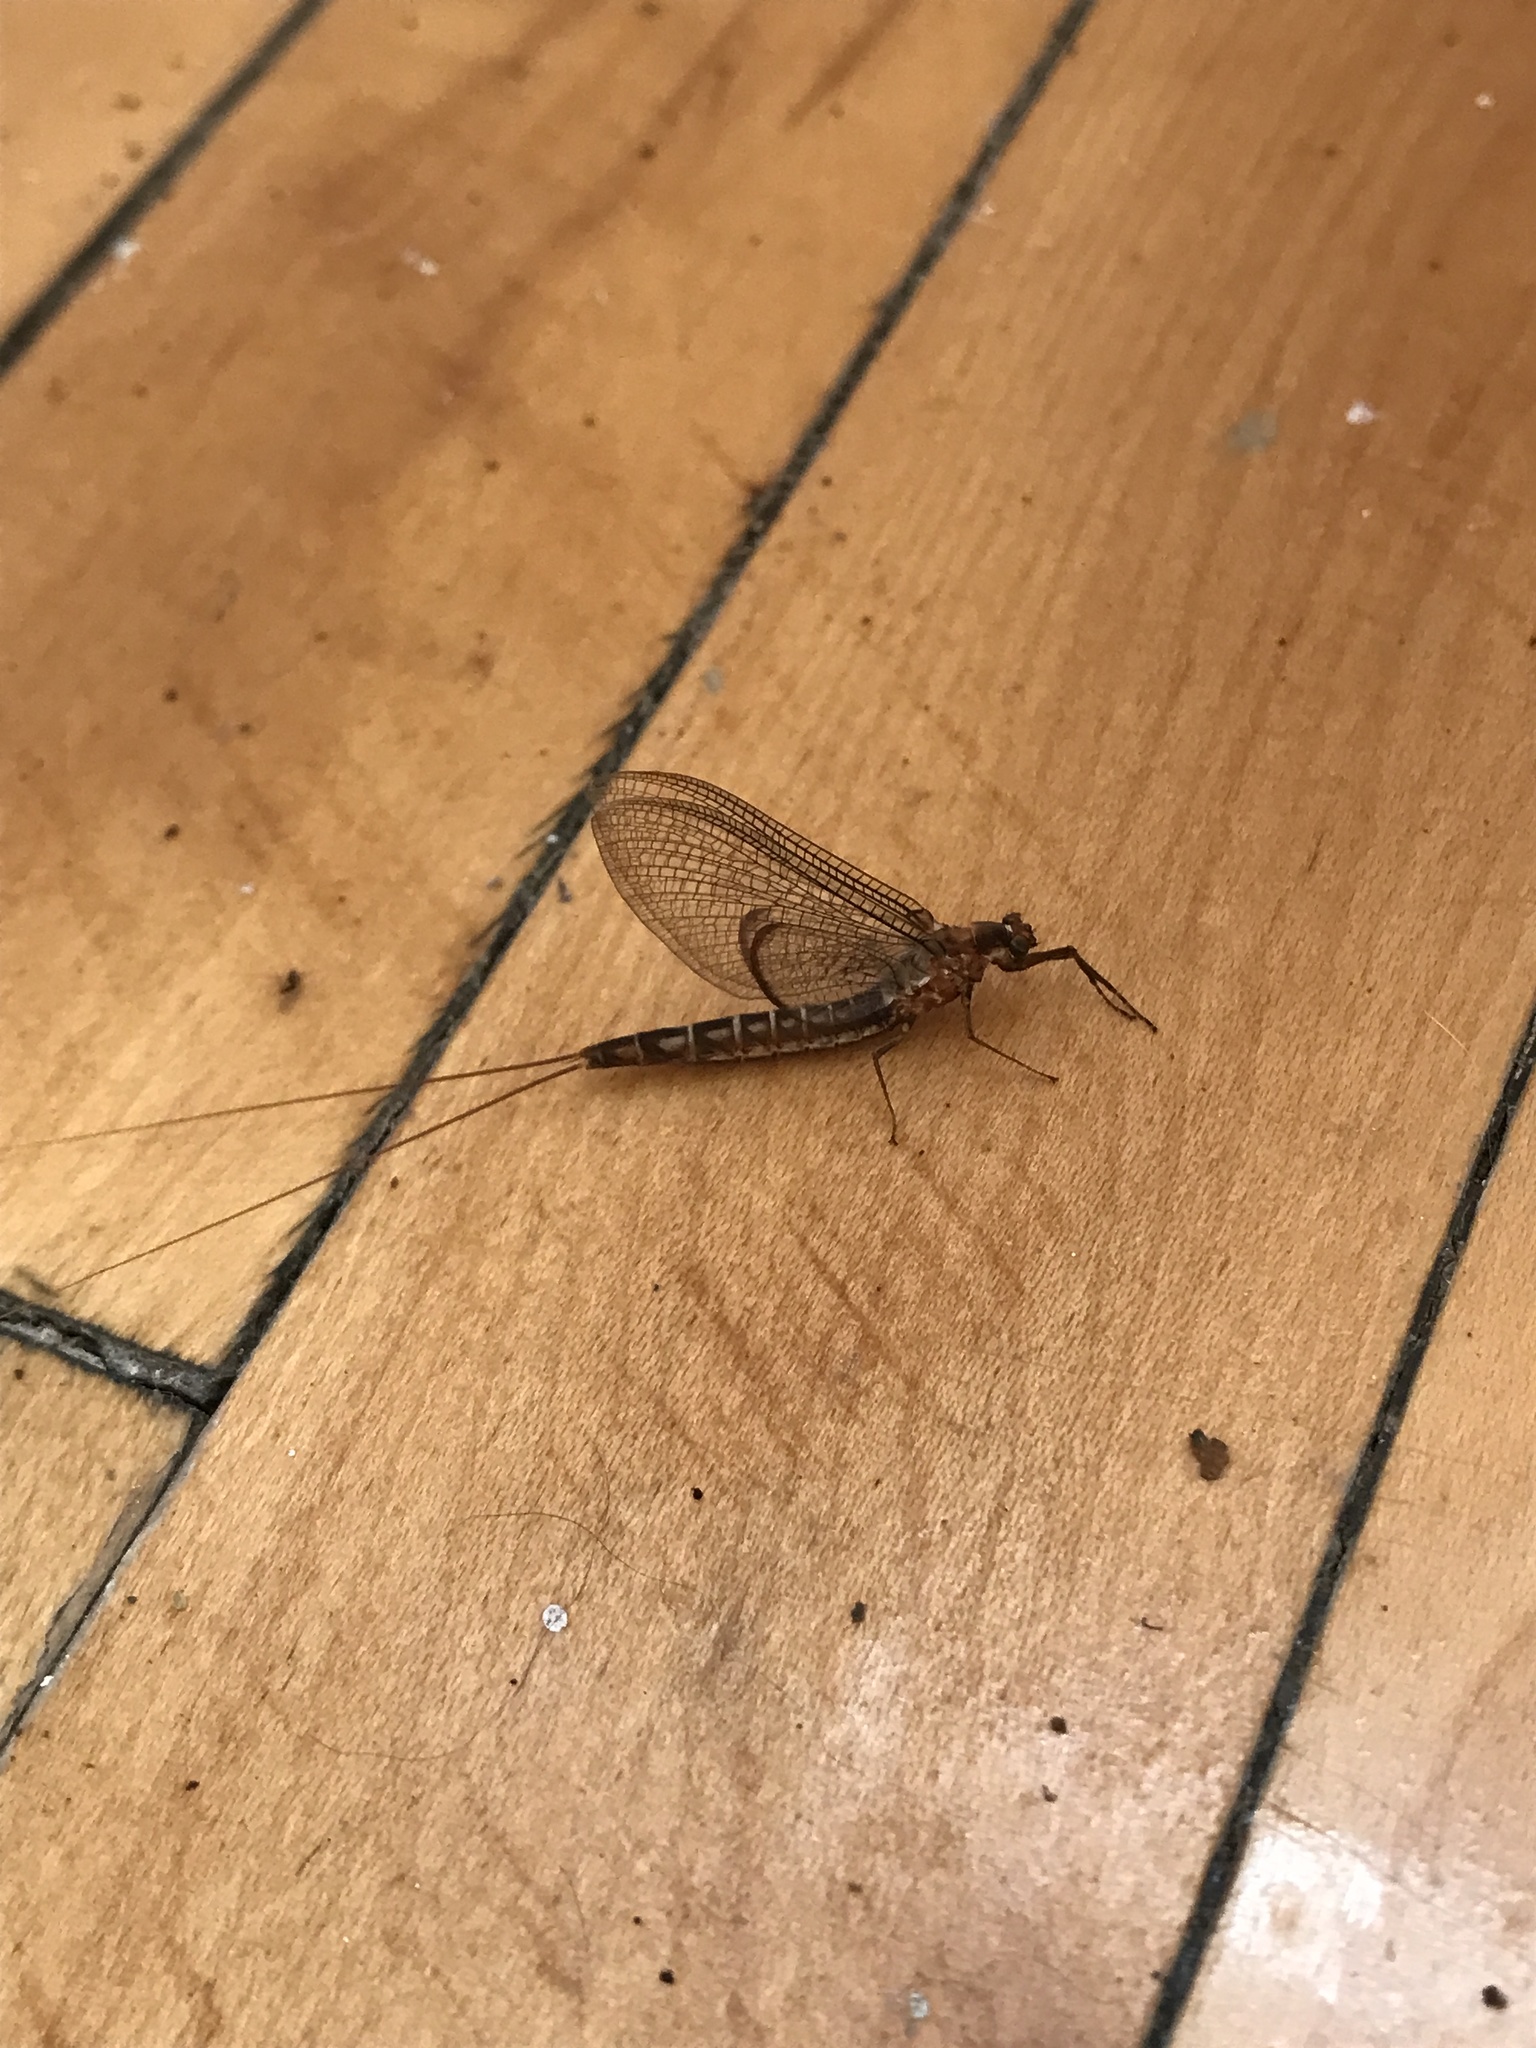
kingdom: Animalia
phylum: Arthropoda
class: Insecta
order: Ephemeroptera
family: Ephemeridae
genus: Hexagenia
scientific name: Hexagenia atrocaudata
